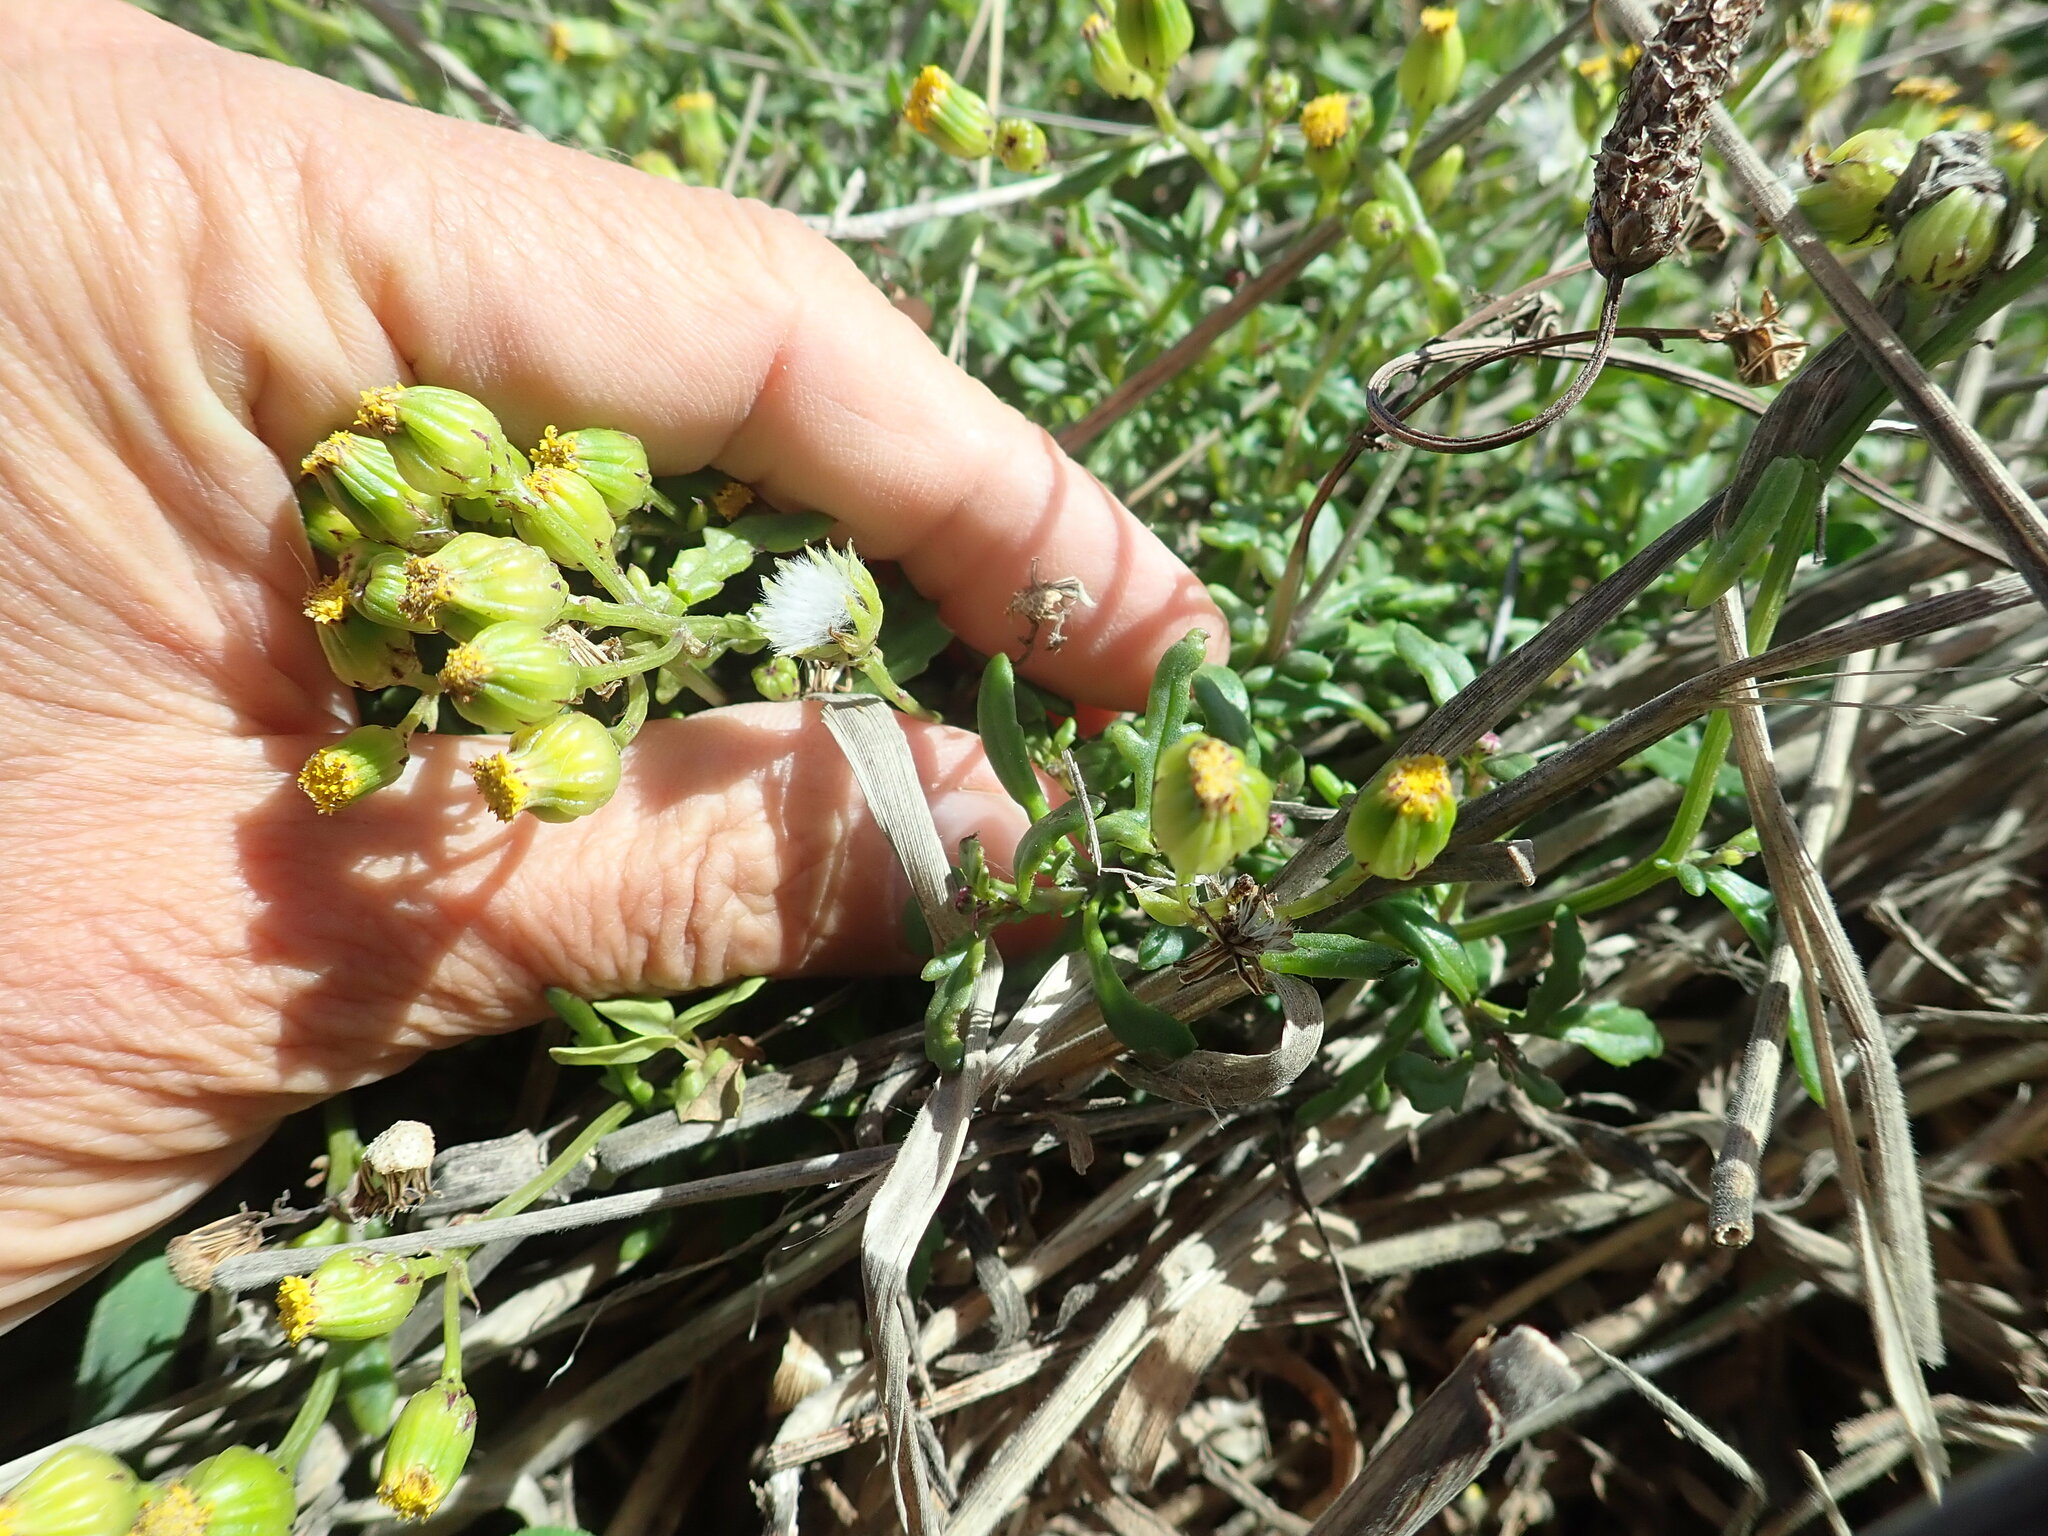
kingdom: Plantae
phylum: Tracheophyta
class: Magnoliopsida
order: Asterales
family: Asteraceae
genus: Senecio
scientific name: Senecio lautus
